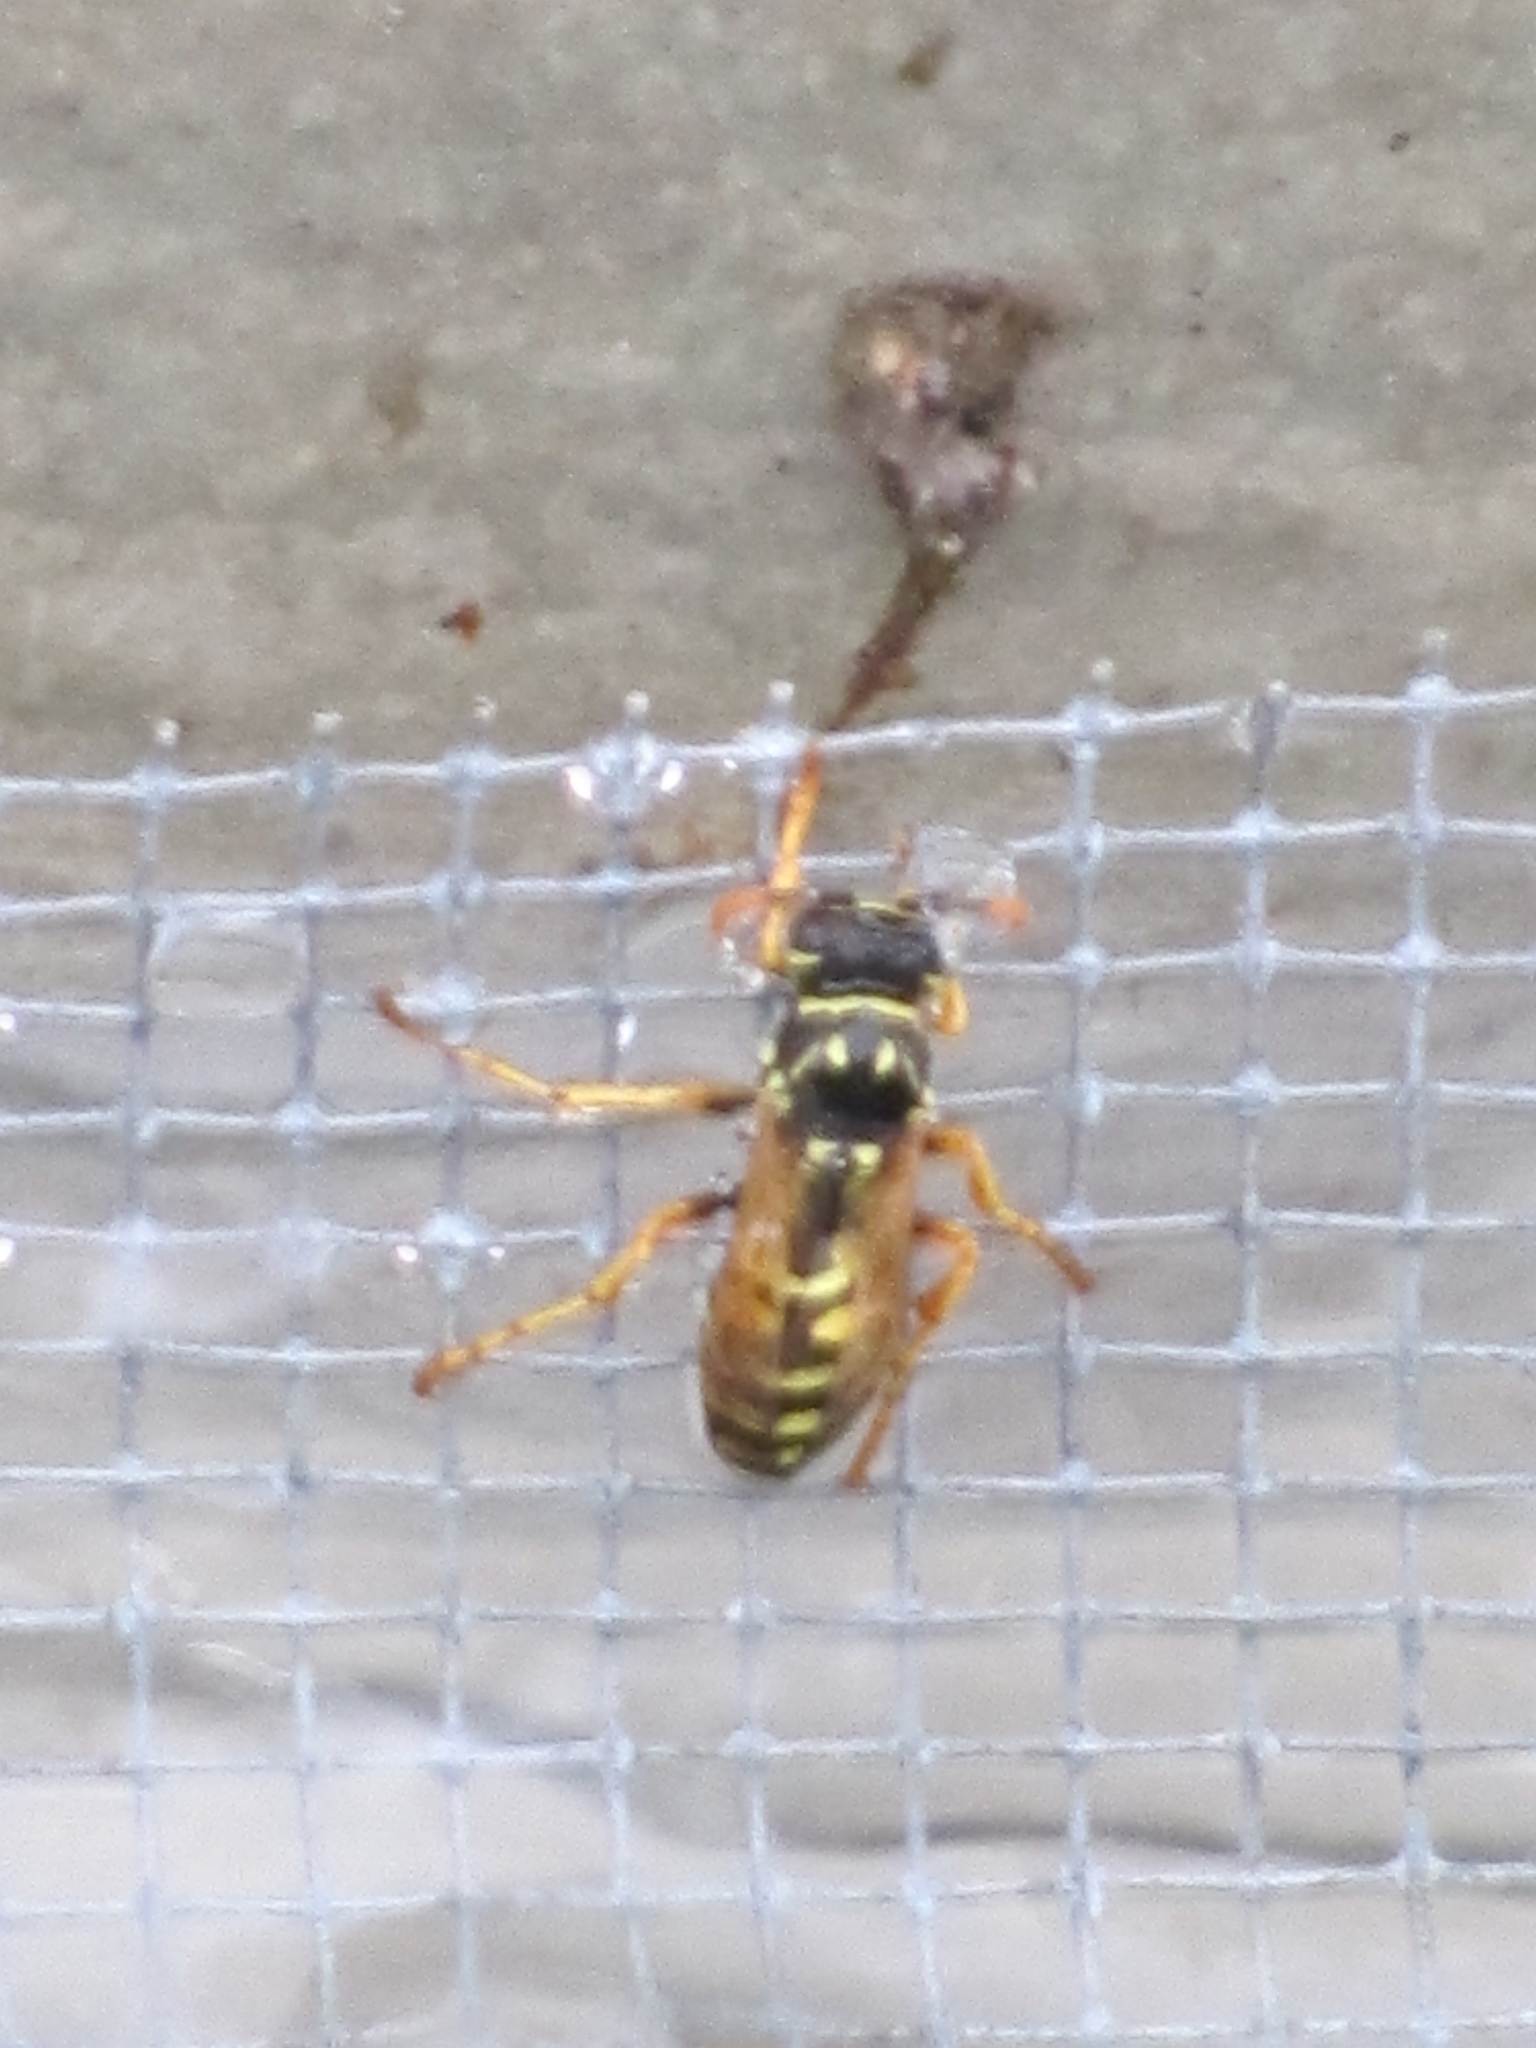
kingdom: Animalia
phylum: Arthropoda
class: Insecta
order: Hymenoptera
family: Eumenidae
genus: Polistes
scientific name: Polistes dominula
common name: Paper wasp
